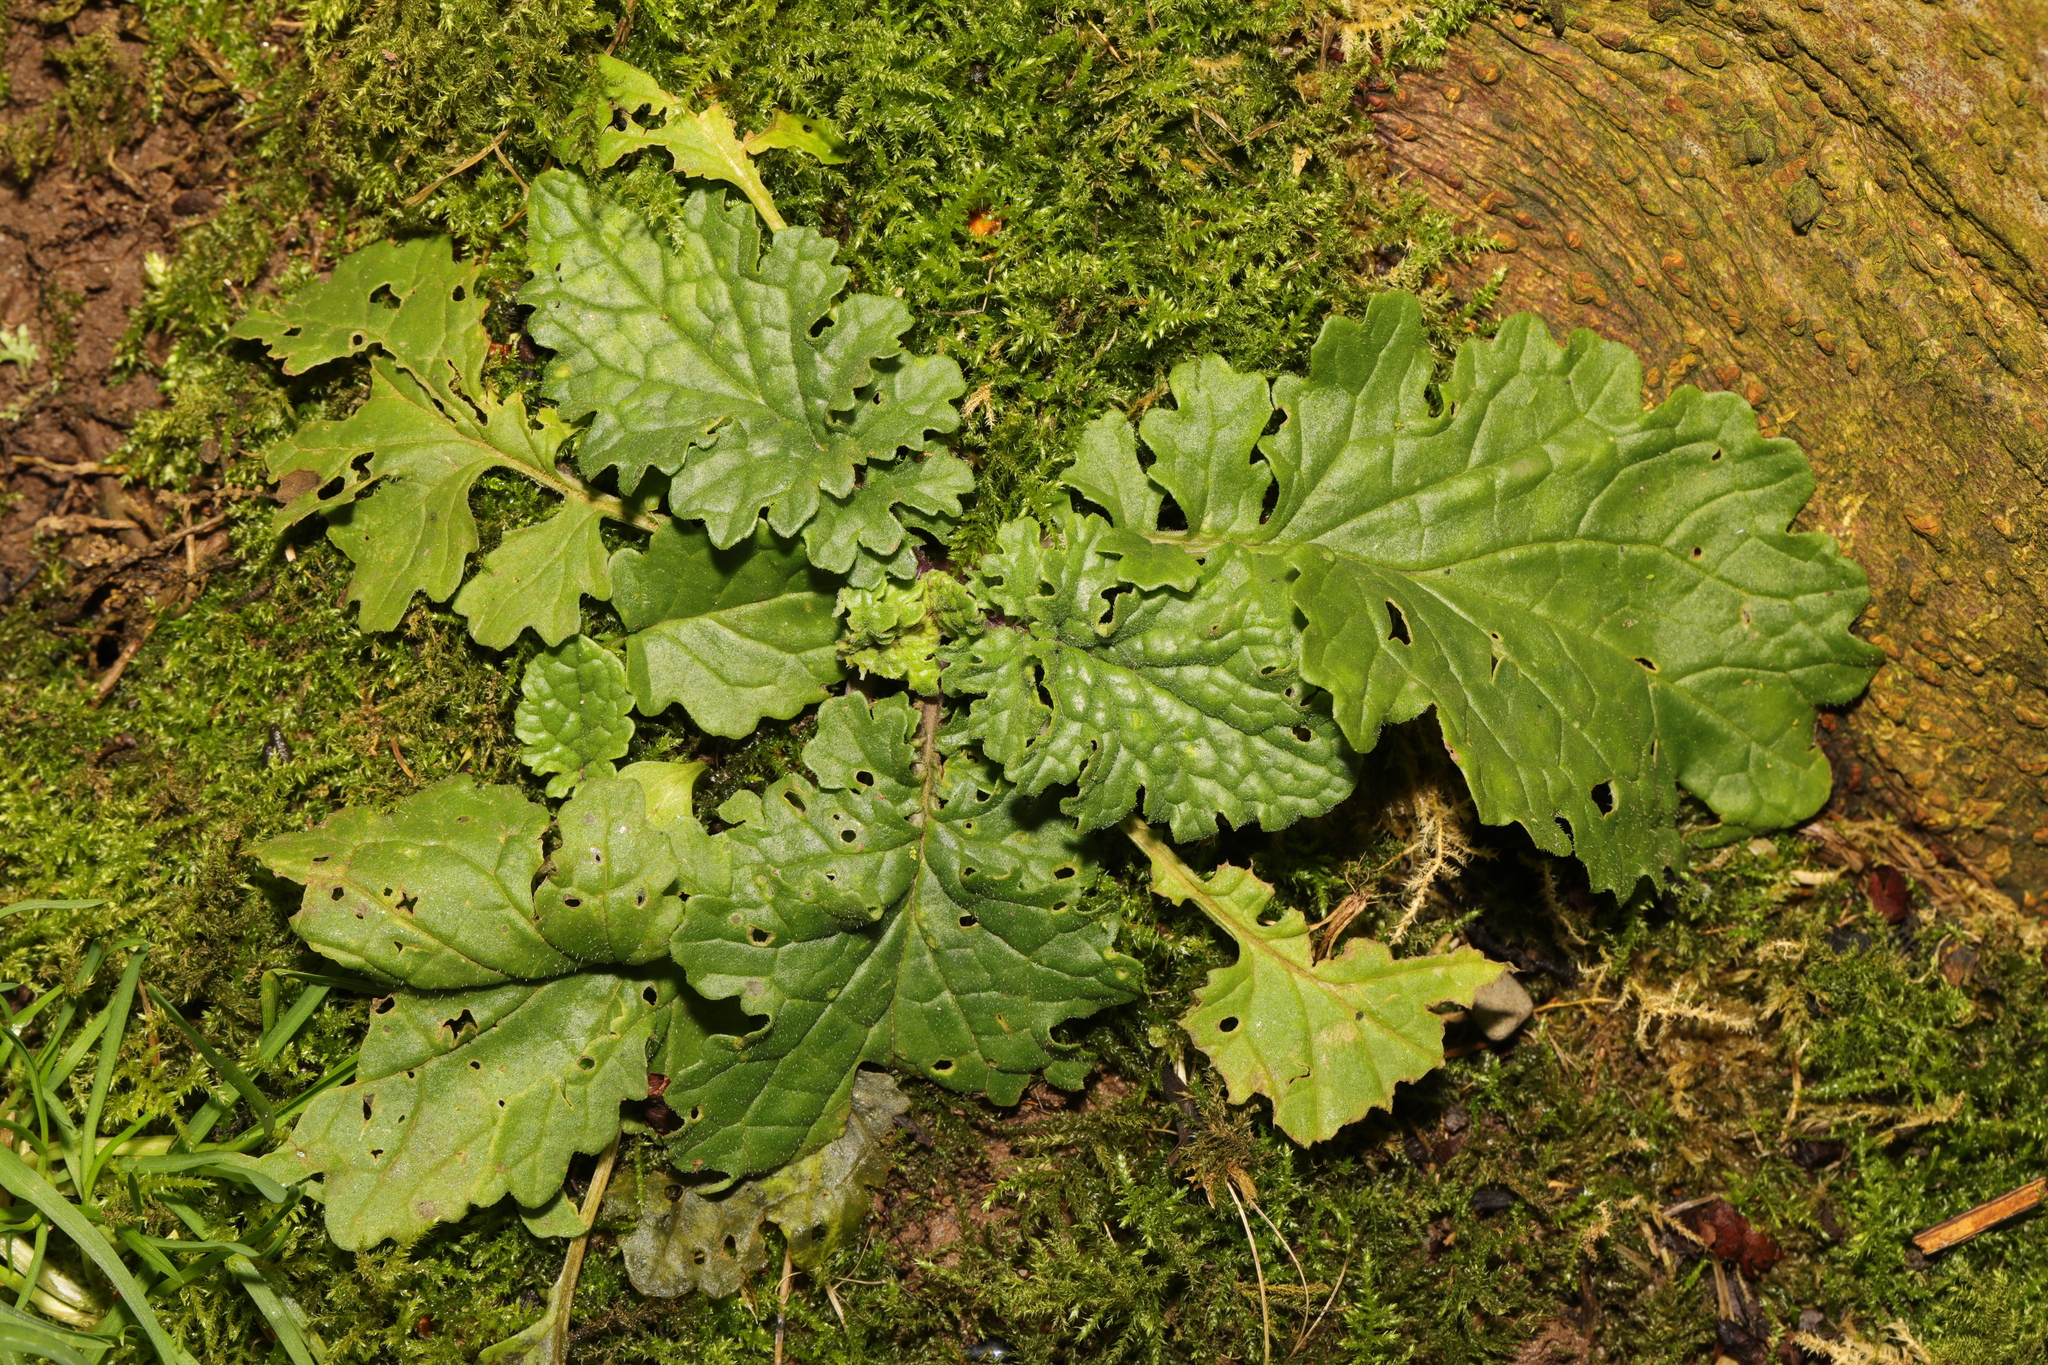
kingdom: Plantae
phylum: Tracheophyta
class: Magnoliopsida
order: Asterales
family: Asteraceae
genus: Jacobaea
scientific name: Jacobaea vulgaris
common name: Stinking willie
